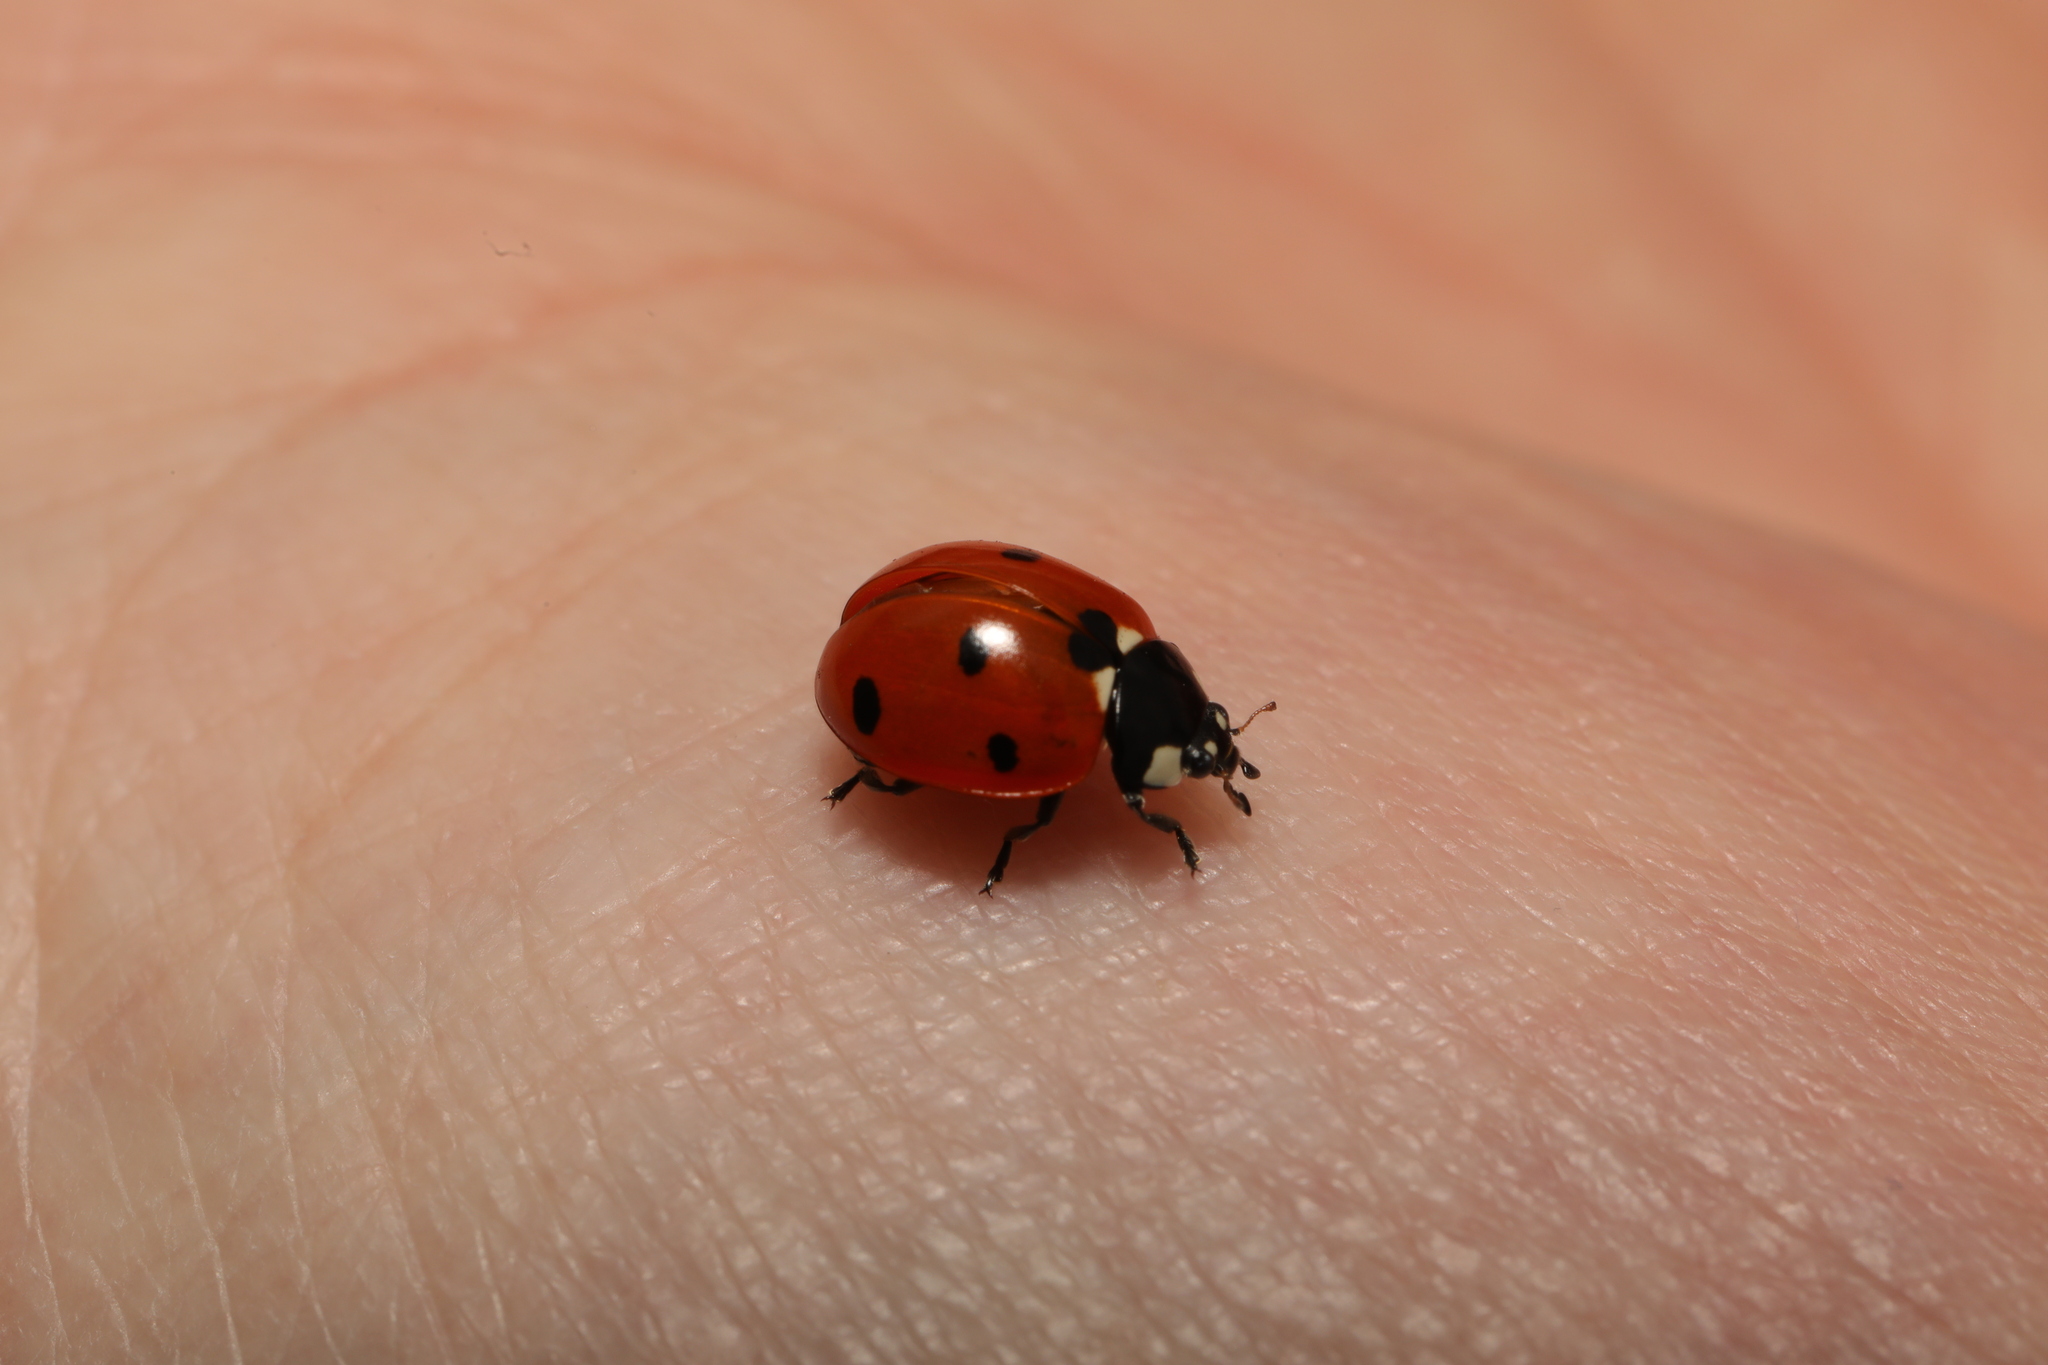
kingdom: Animalia
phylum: Arthropoda
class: Insecta
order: Coleoptera
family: Coccinellidae
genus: Coccinella
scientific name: Coccinella septempunctata
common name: Sevenspotted lady beetle
